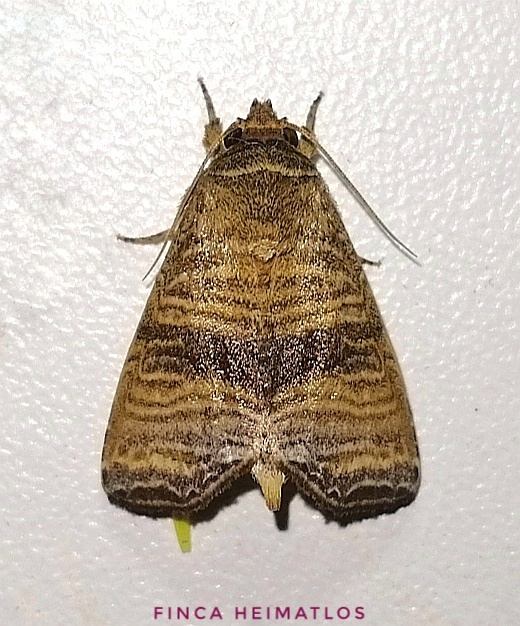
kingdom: Animalia
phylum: Arthropoda
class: Insecta
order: Lepidoptera
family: Noctuidae
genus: Phuphena
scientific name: Phuphena multilinea
